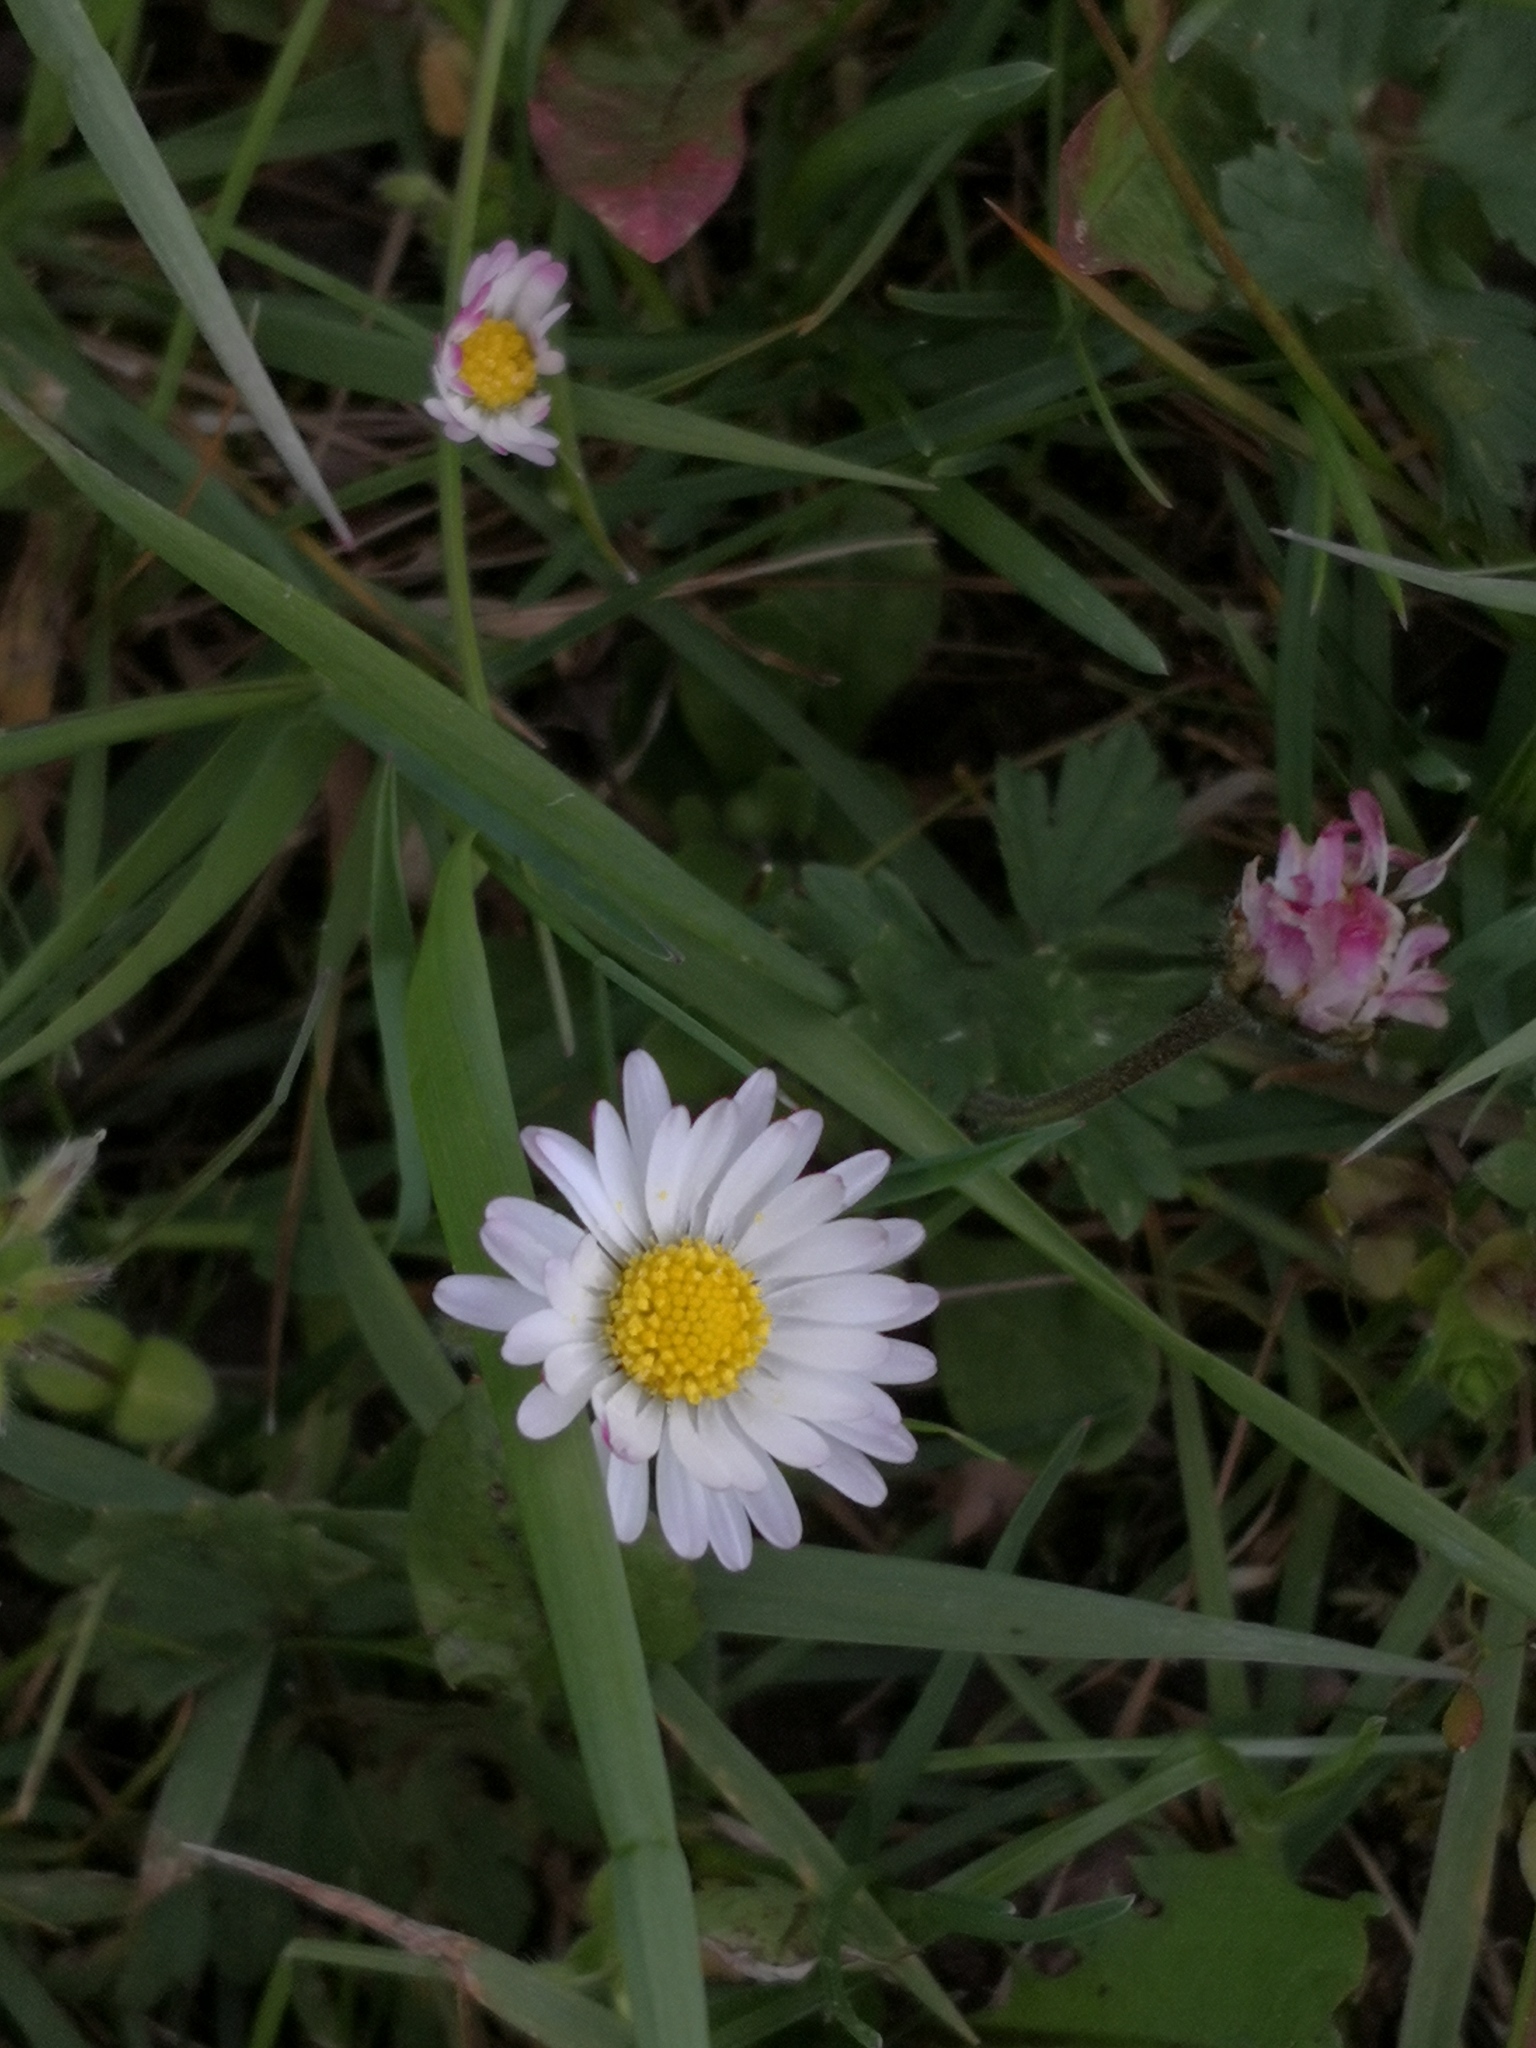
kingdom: Plantae
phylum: Tracheophyta
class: Magnoliopsida
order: Asterales
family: Asteraceae
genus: Bellis
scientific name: Bellis perennis
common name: Lawndaisy
